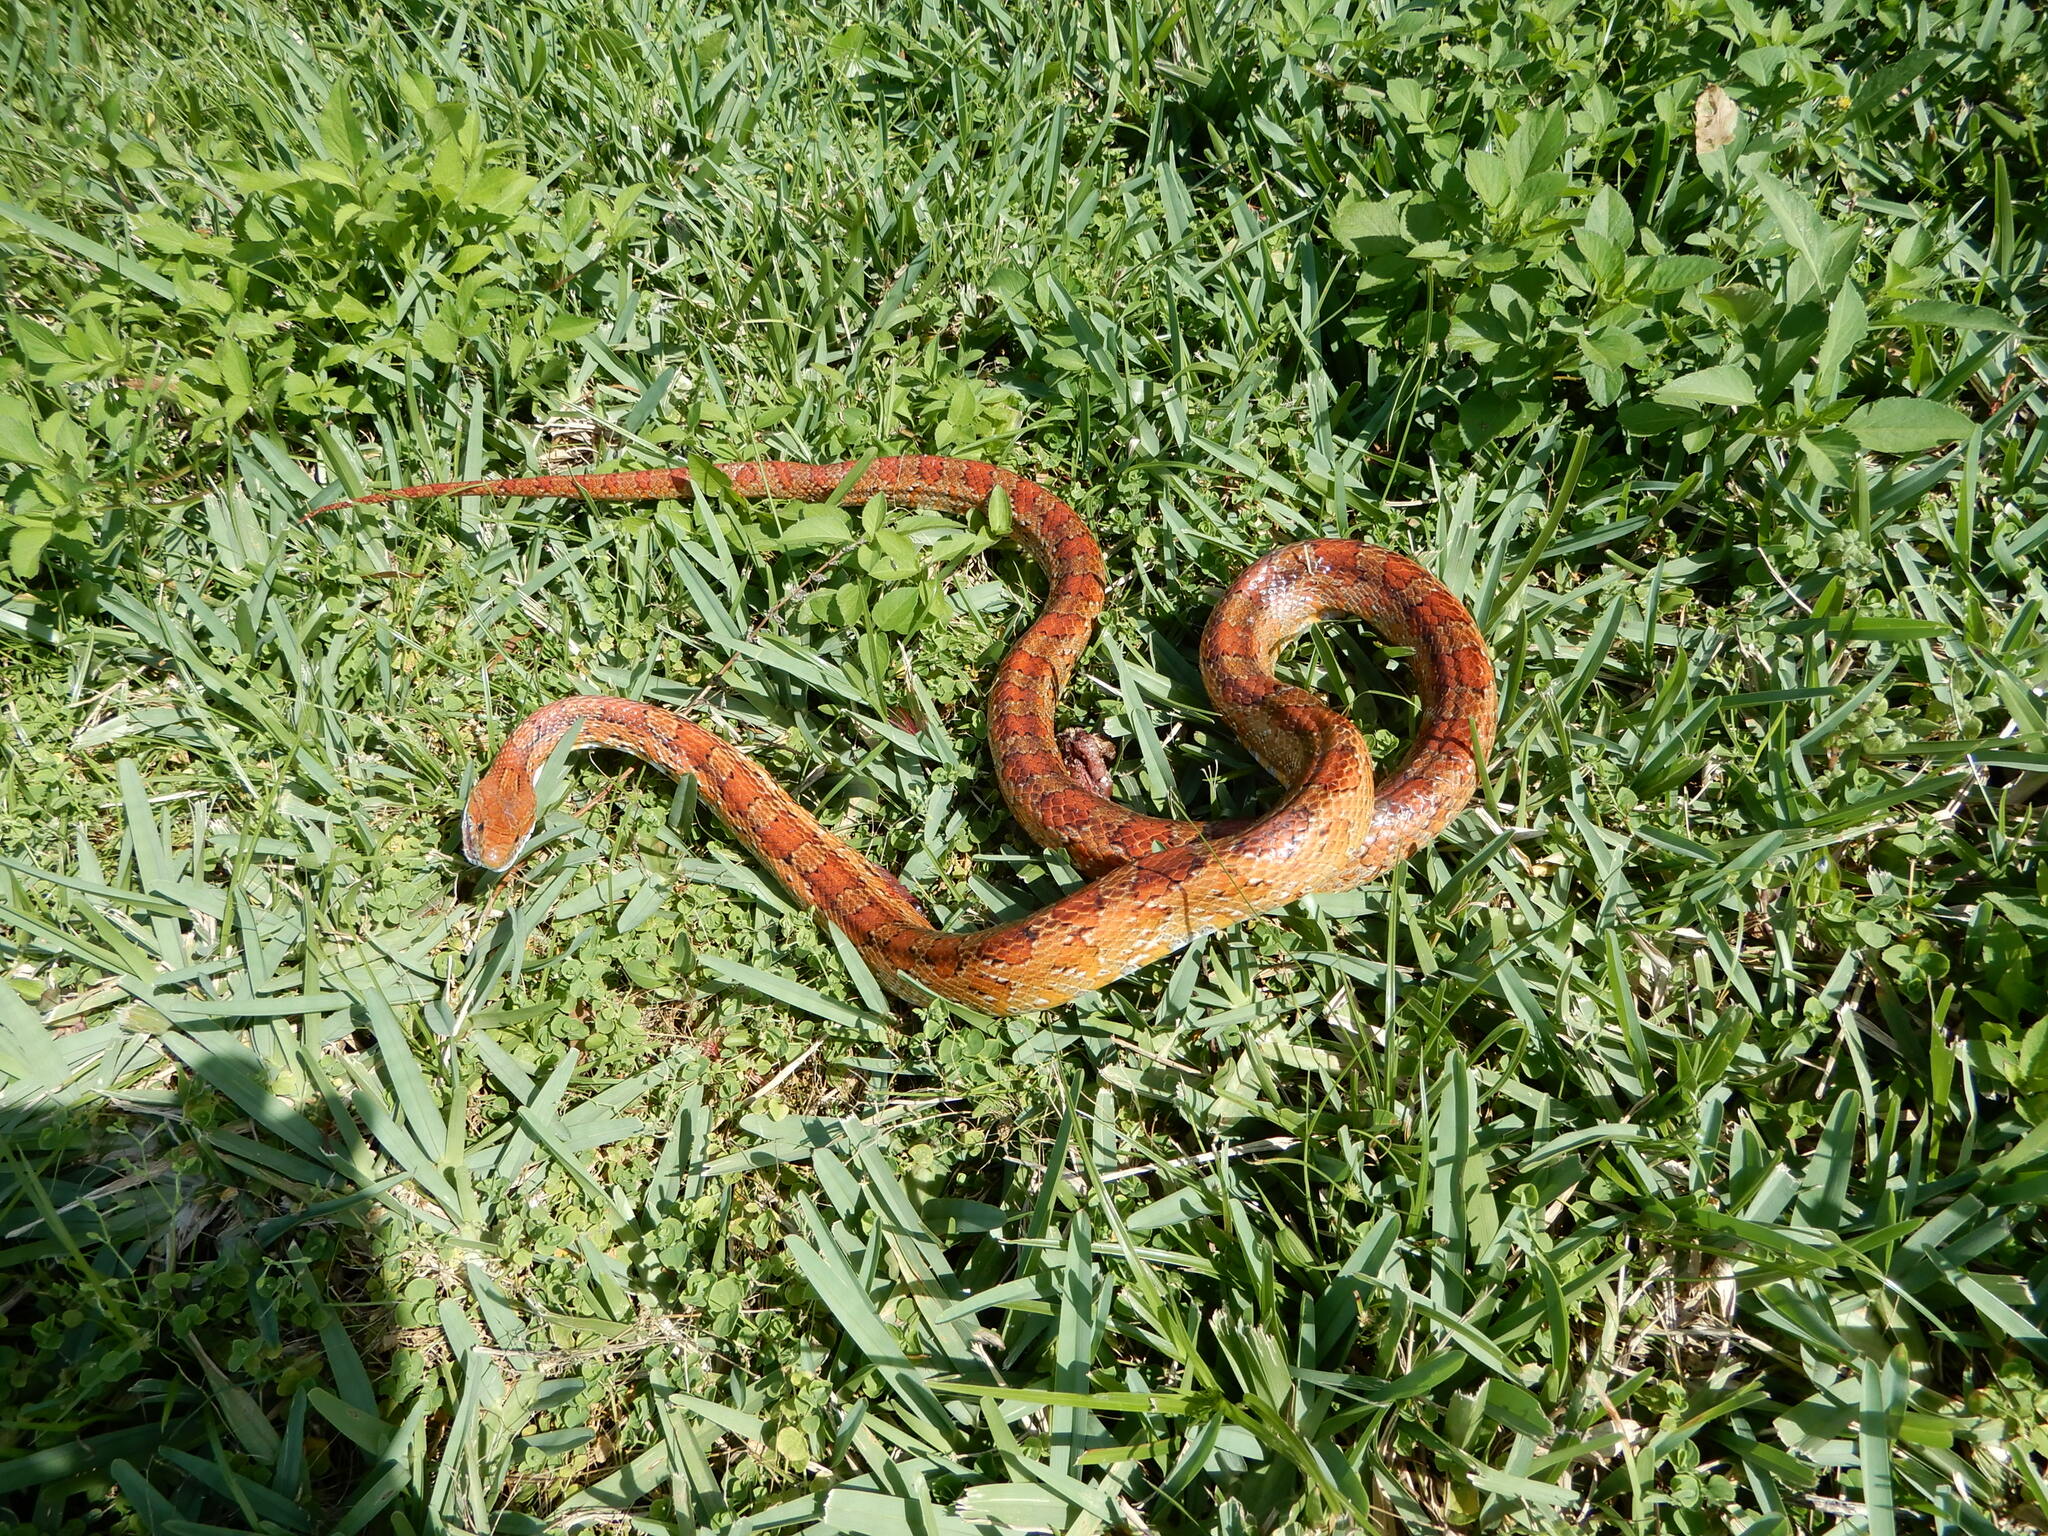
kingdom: Animalia
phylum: Chordata
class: Squamata
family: Colubridae
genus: Pantherophis
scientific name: Pantherophis guttatus
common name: Red cornsnake
